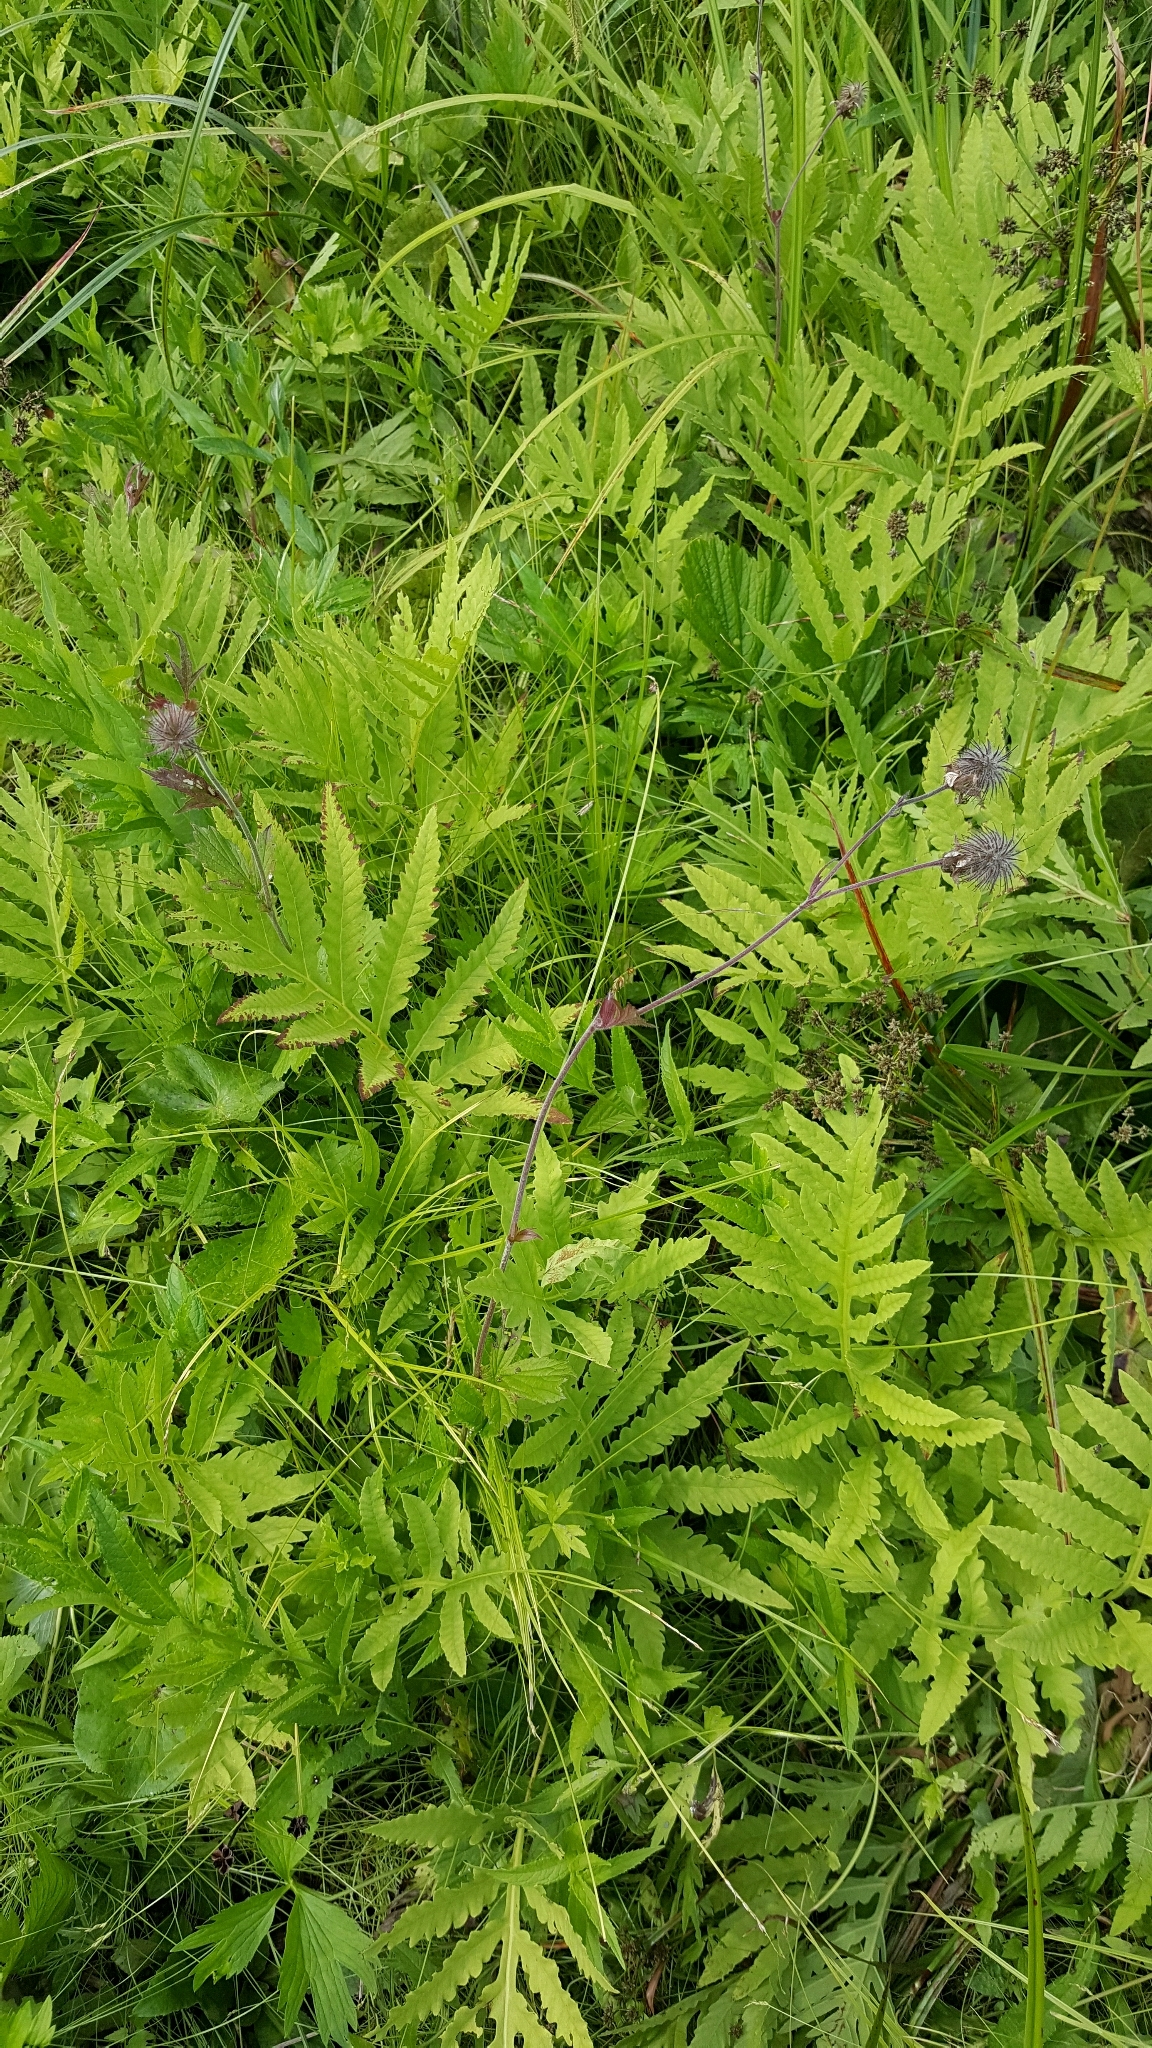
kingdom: Plantae
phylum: Tracheophyta
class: Magnoliopsida
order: Rosales
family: Rosaceae
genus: Geum
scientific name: Geum rivale
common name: Water avens
